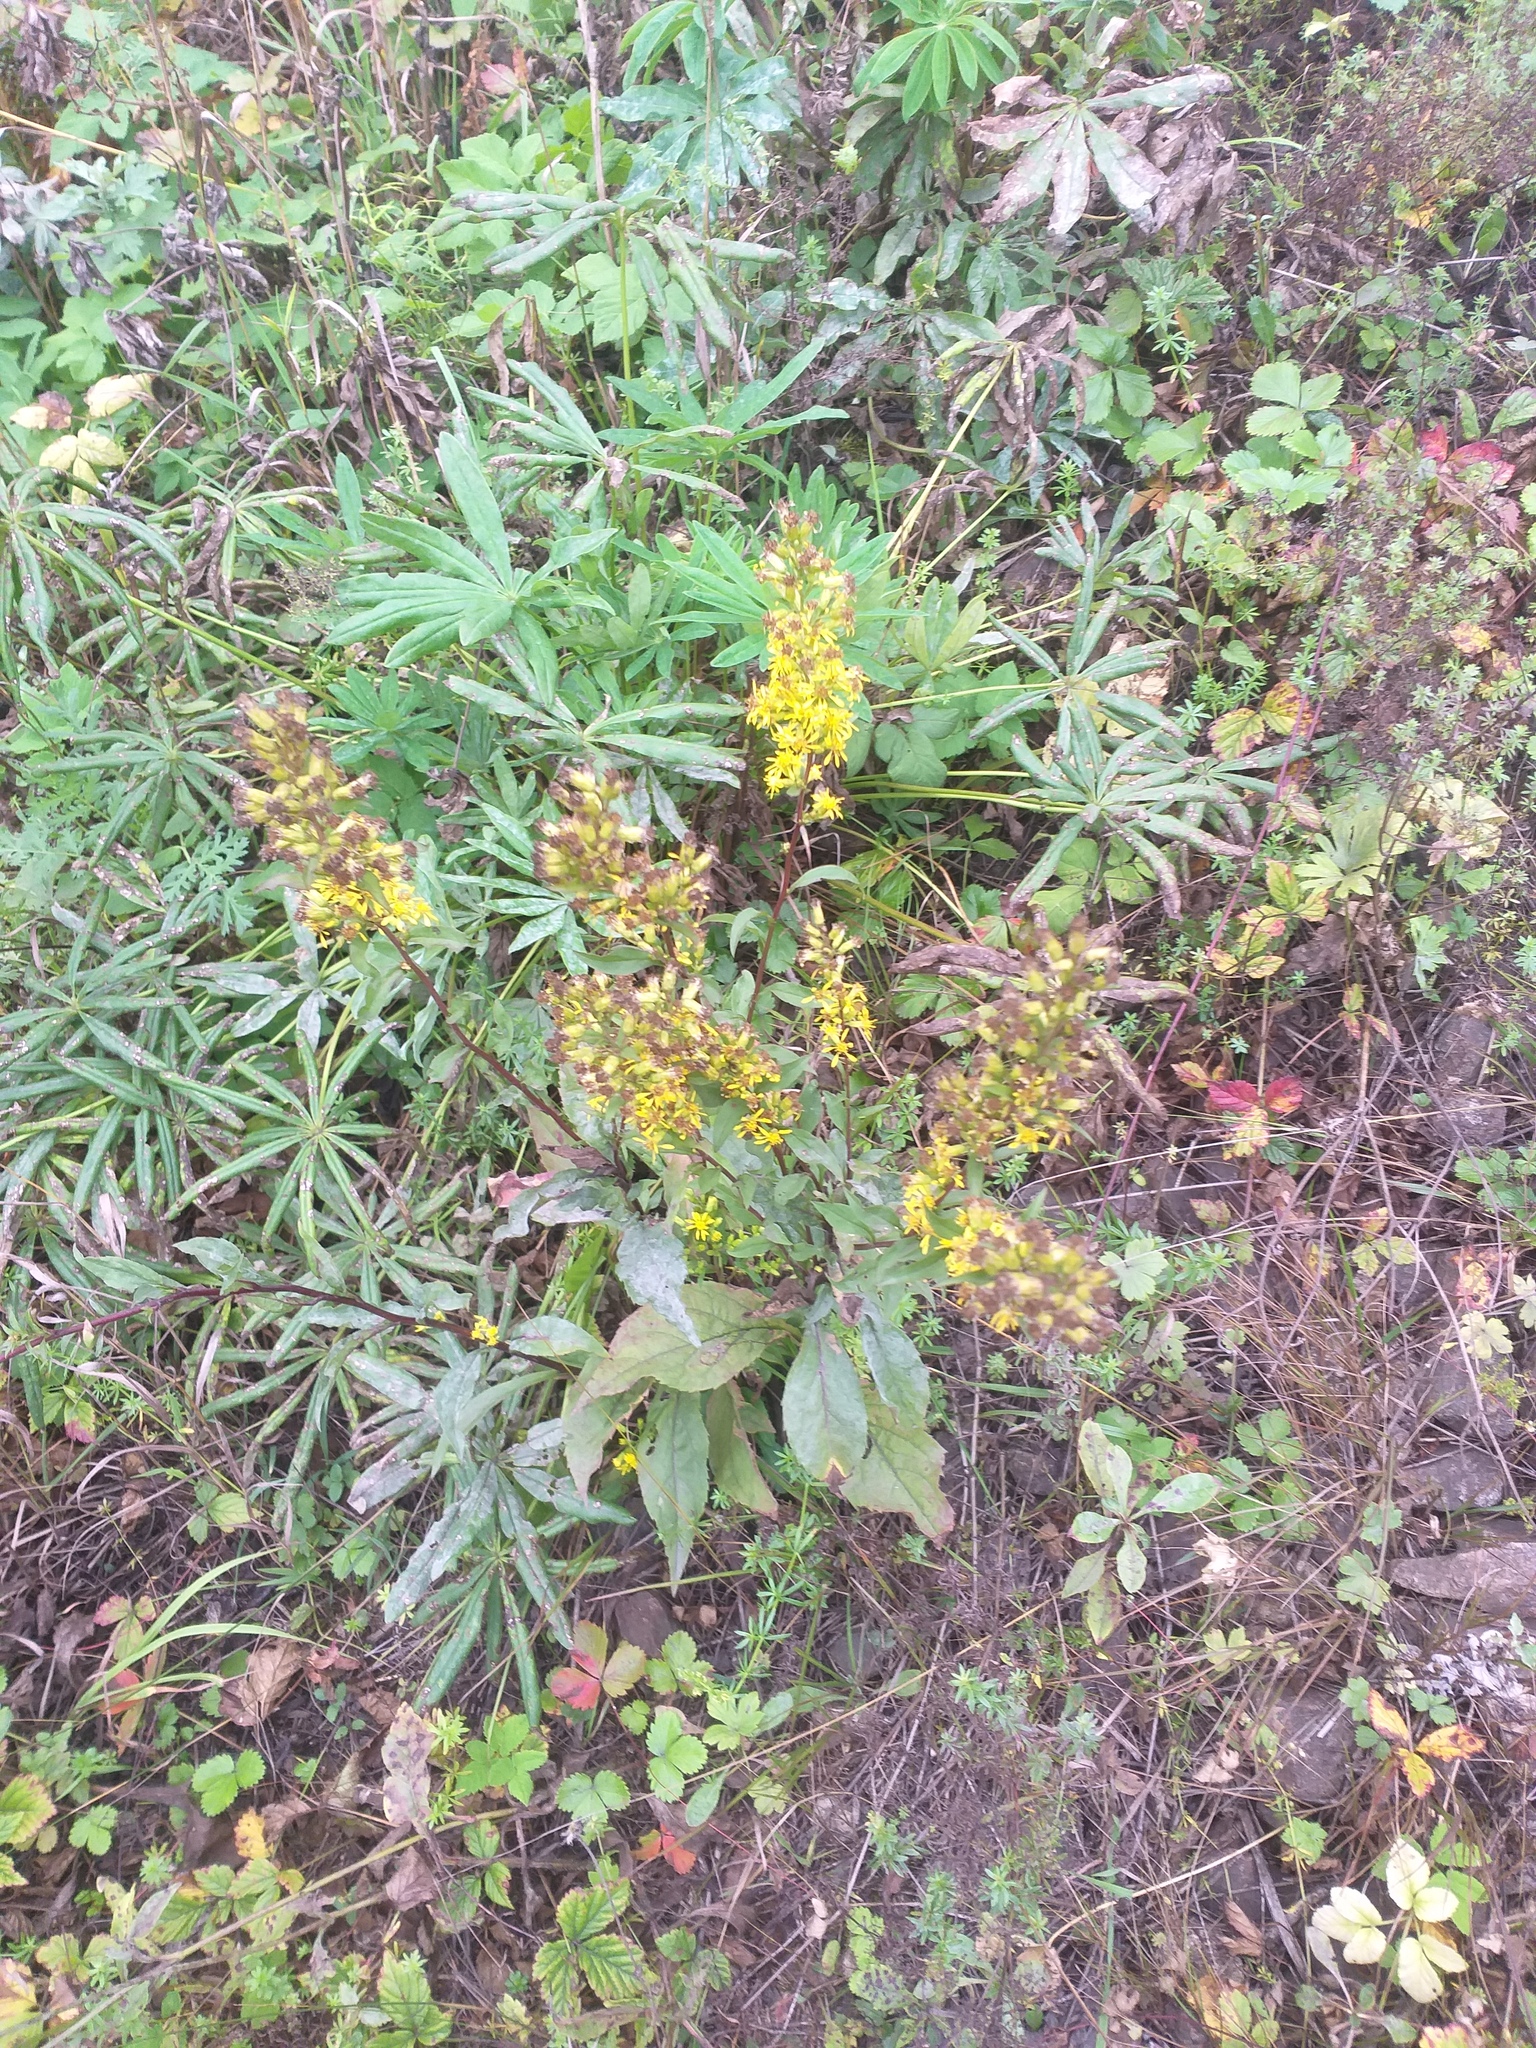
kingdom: Plantae
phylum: Tracheophyta
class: Magnoliopsida
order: Asterales
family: Asteraceae
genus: Solidago
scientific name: Solidago virgaurea
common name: Goldenrod
